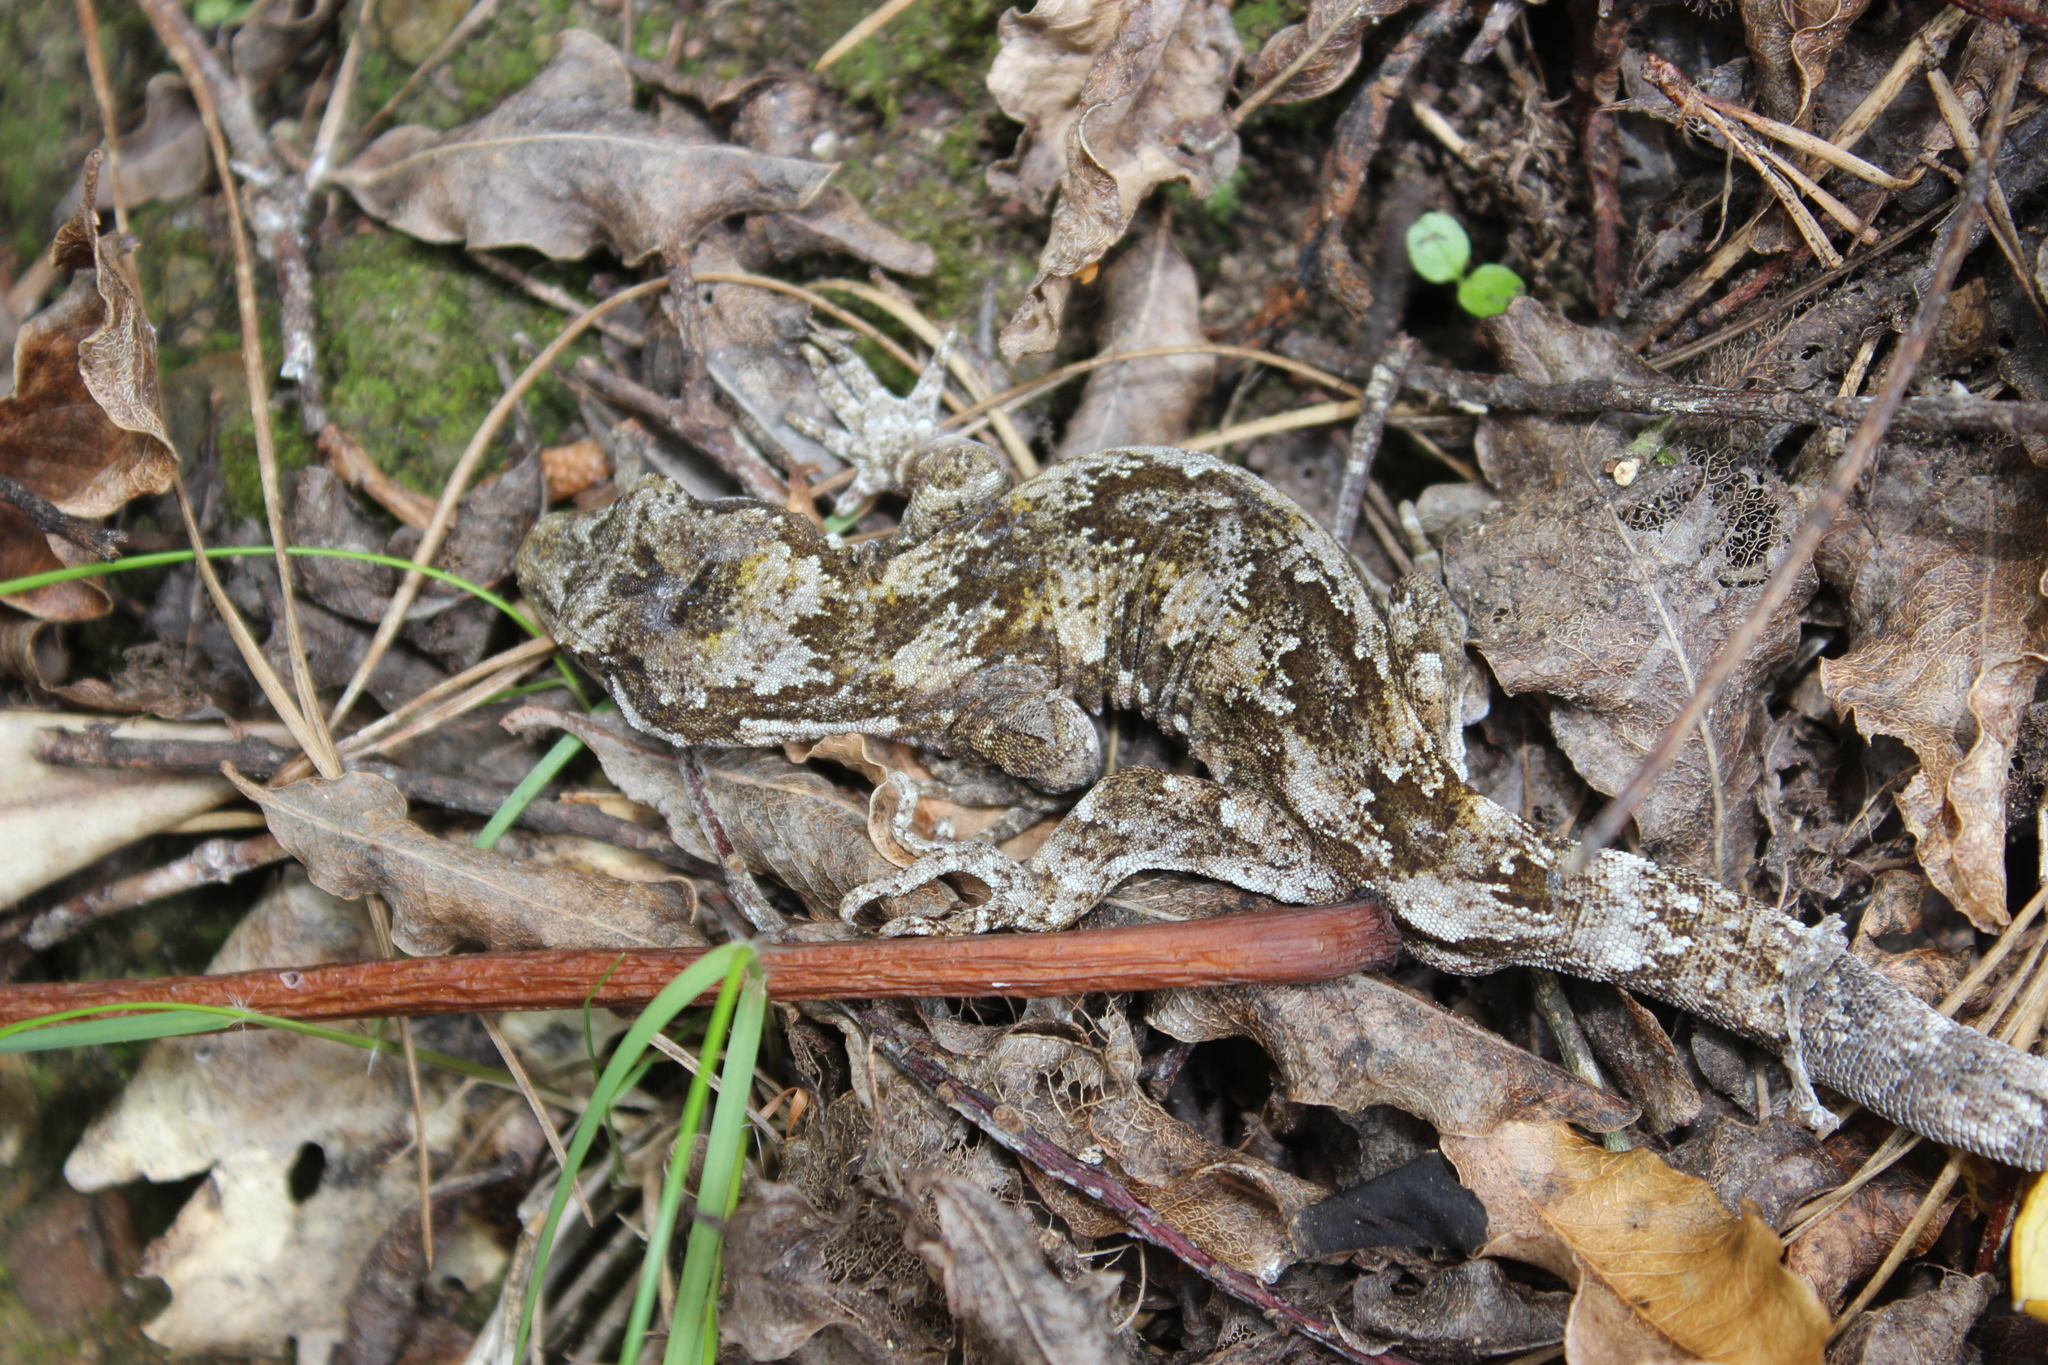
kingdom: Animalia
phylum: Chordata
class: Squamata
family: Diplodactylidae
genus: Mokopirirakau
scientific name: Mokopirirakau
